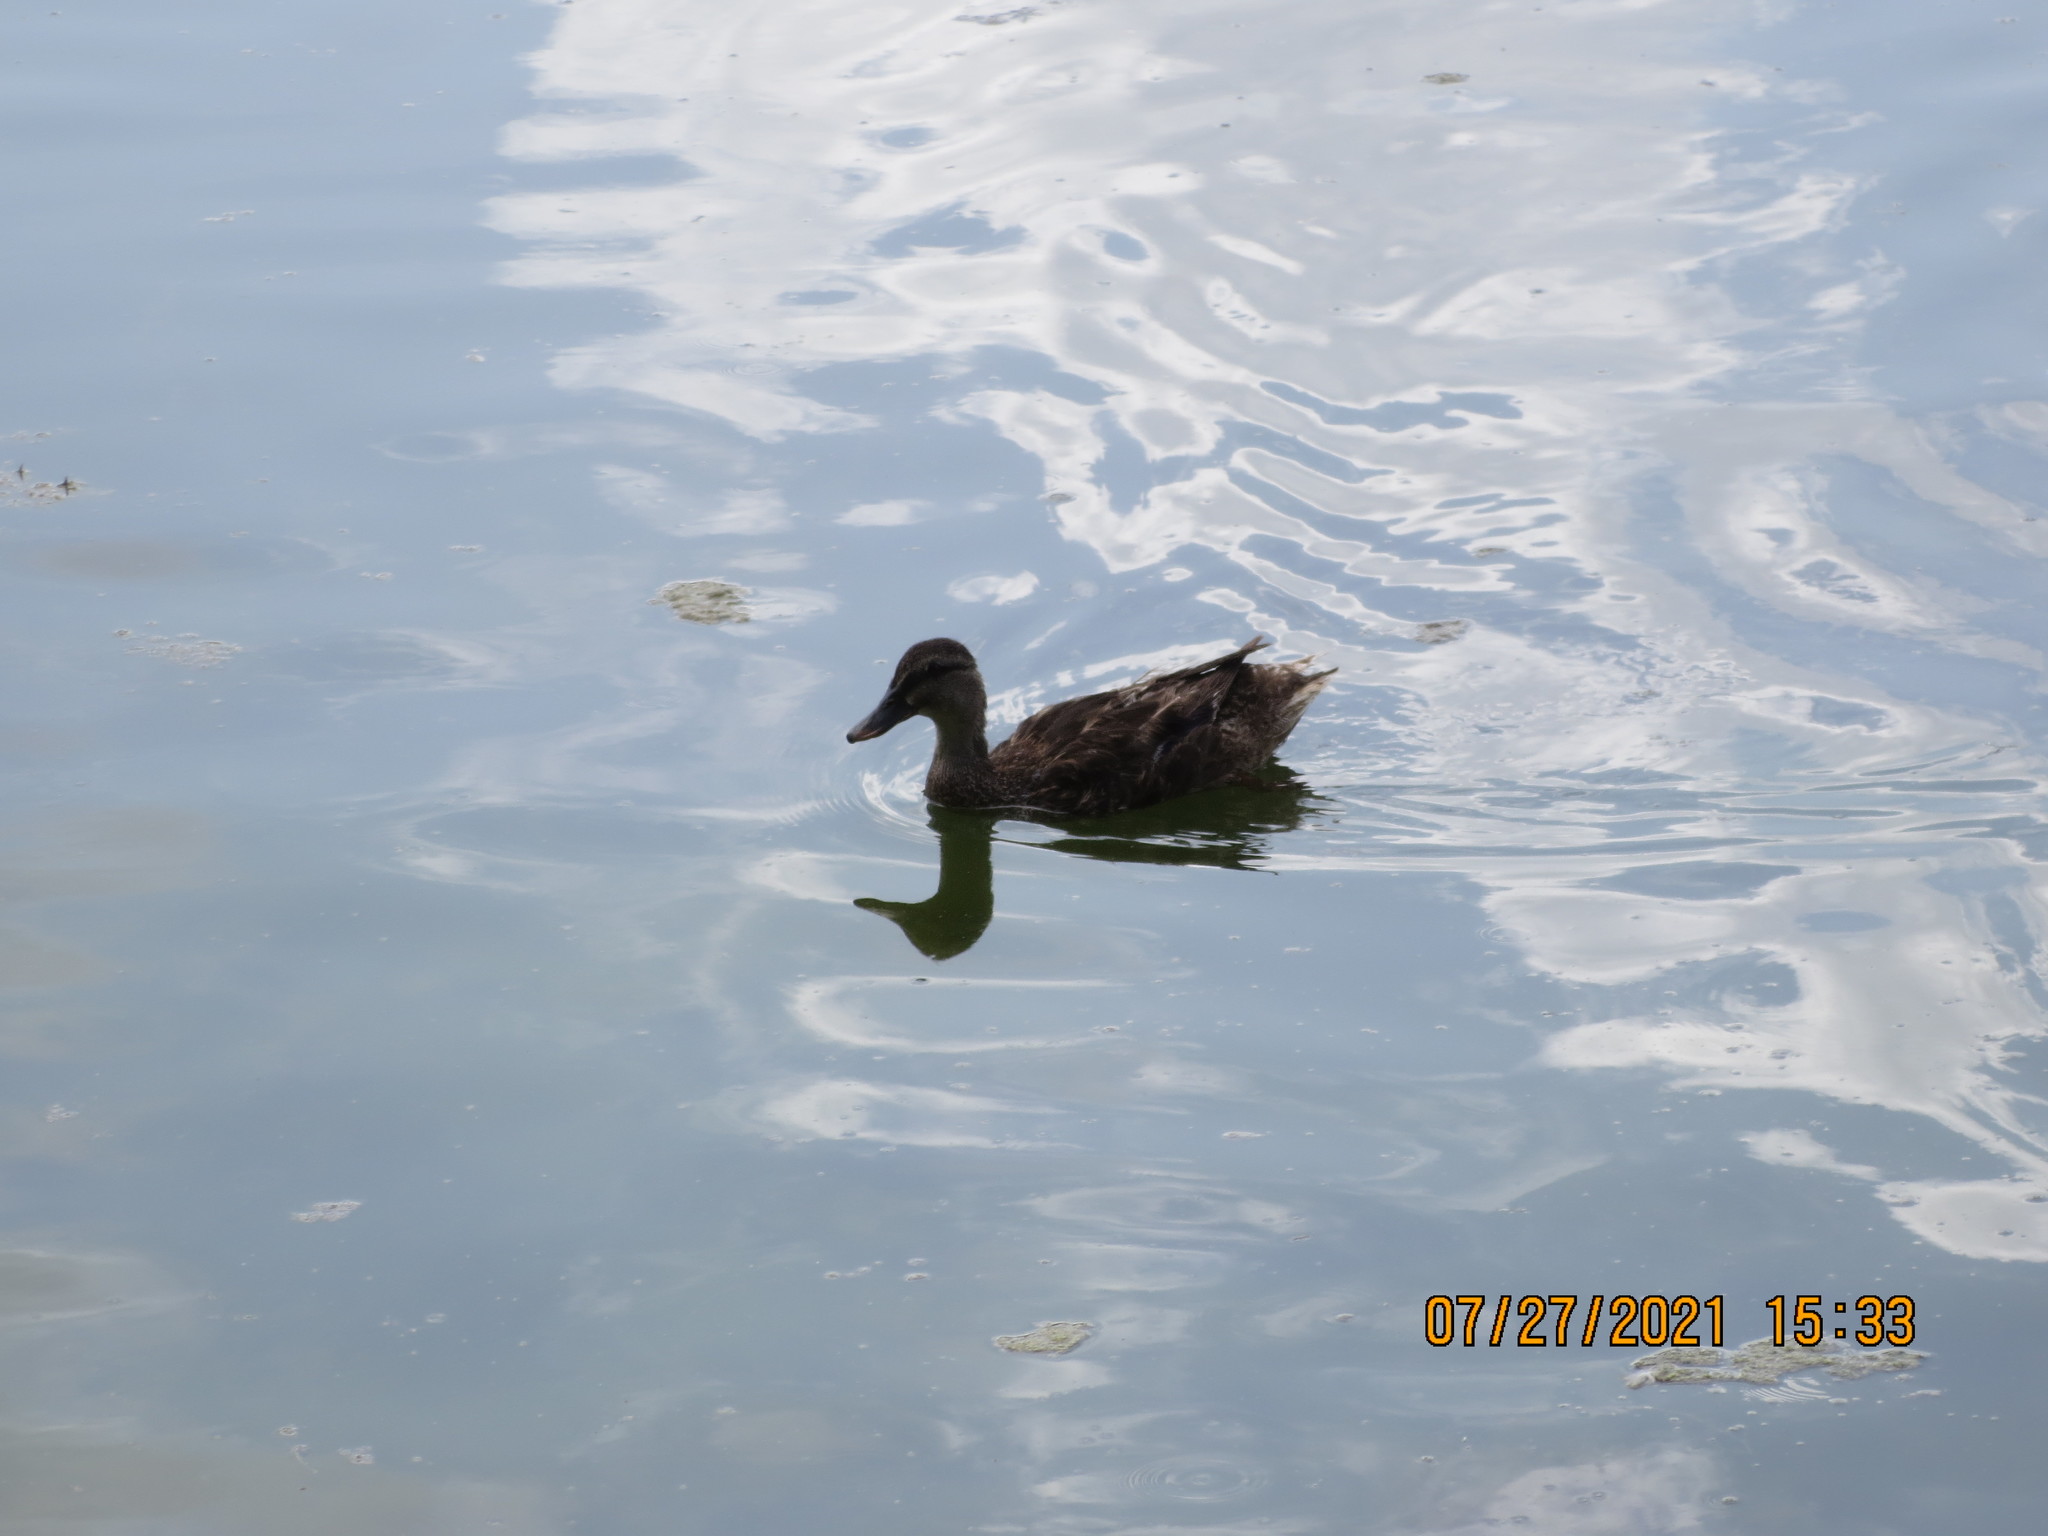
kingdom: Animalia
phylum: Chordata
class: Aves
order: Anseriformes
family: Anatidae
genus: Anas
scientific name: Anas platyrhynchos
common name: Mallard
